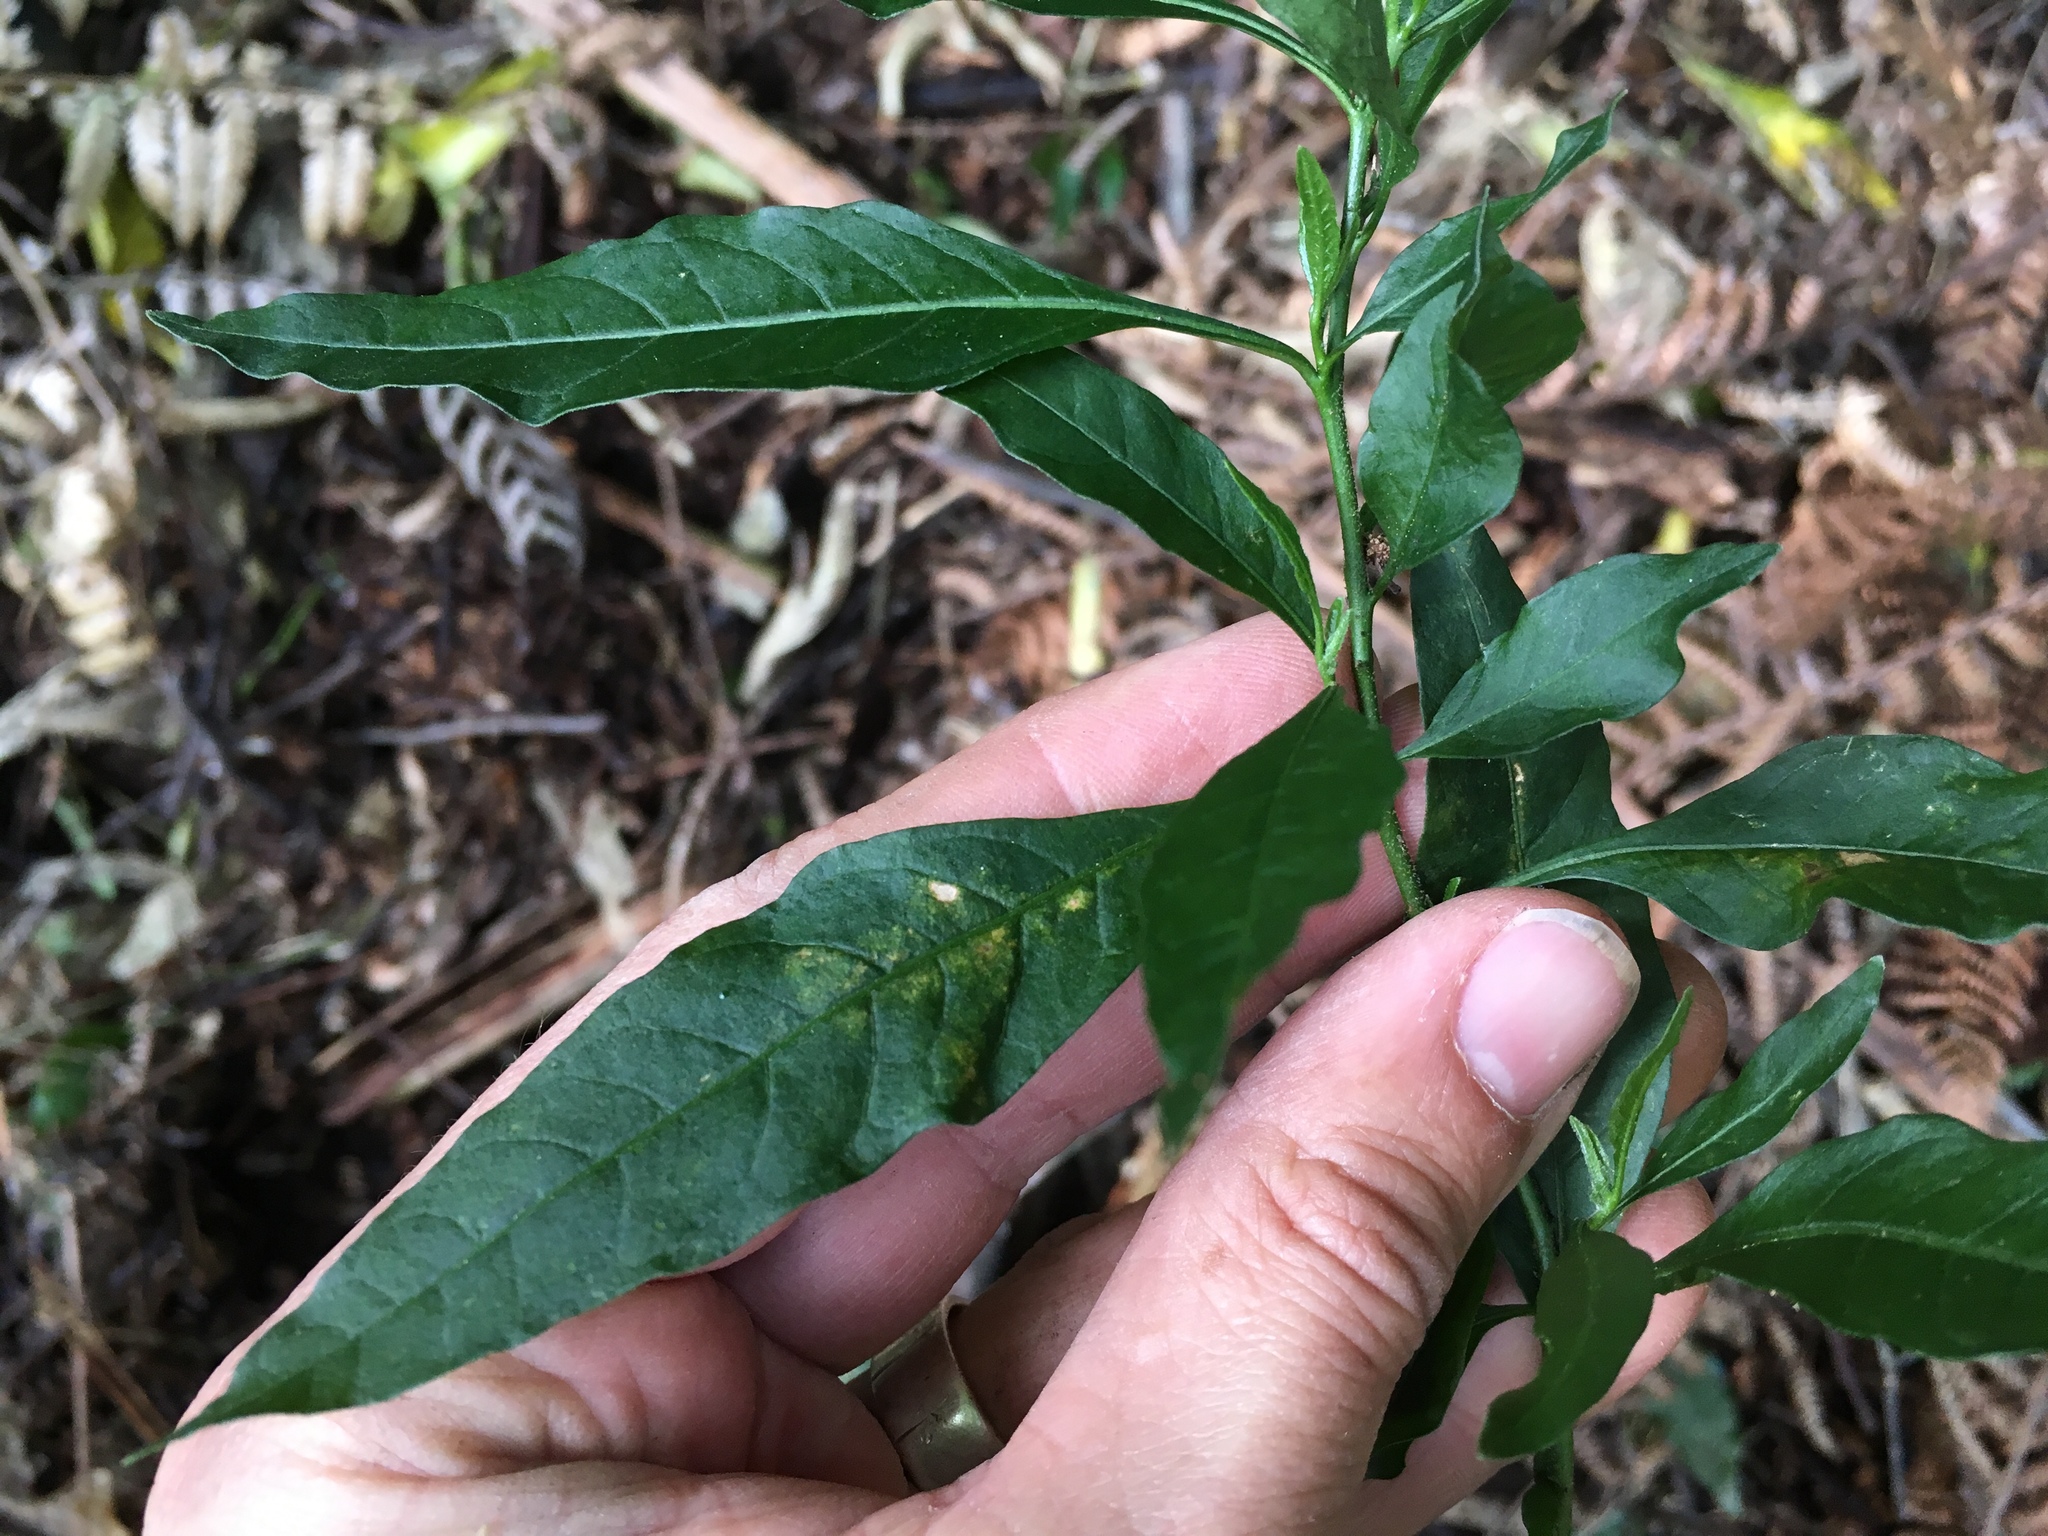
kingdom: Plantae
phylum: Tracheophyta
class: Magnoliopsida
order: Solanales
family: Solanaceae
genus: Solanum
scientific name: Solanum pseudocapsicum
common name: Jerusalem cherry
